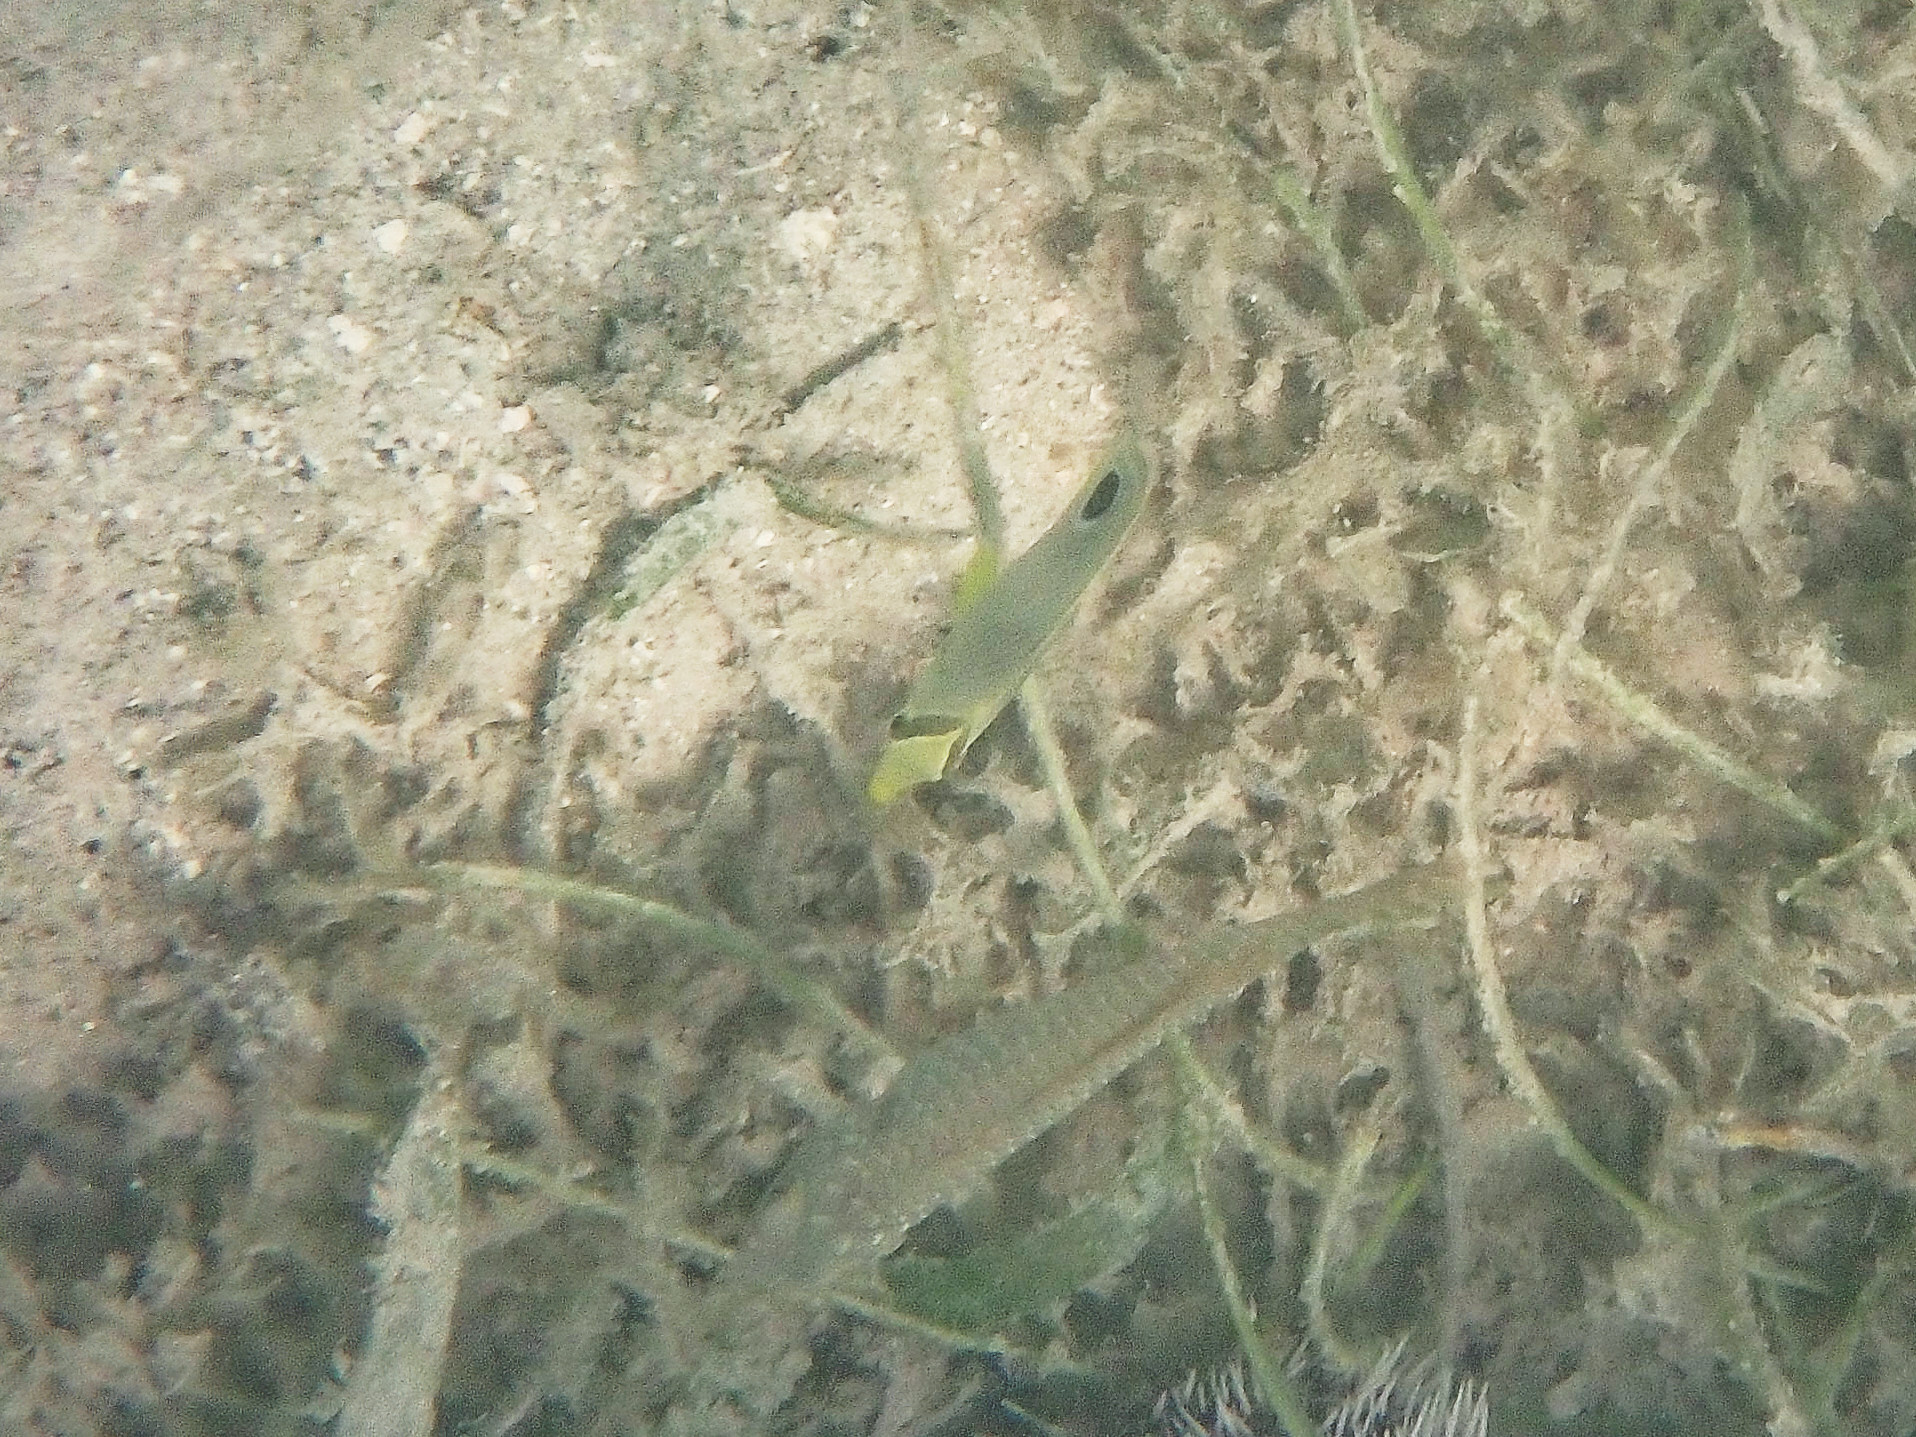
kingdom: Animalia
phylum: Chordata
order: Perciformes
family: Chaetodontidae
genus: Chaetodon
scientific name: Chaetodon capistratus
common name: Kete
